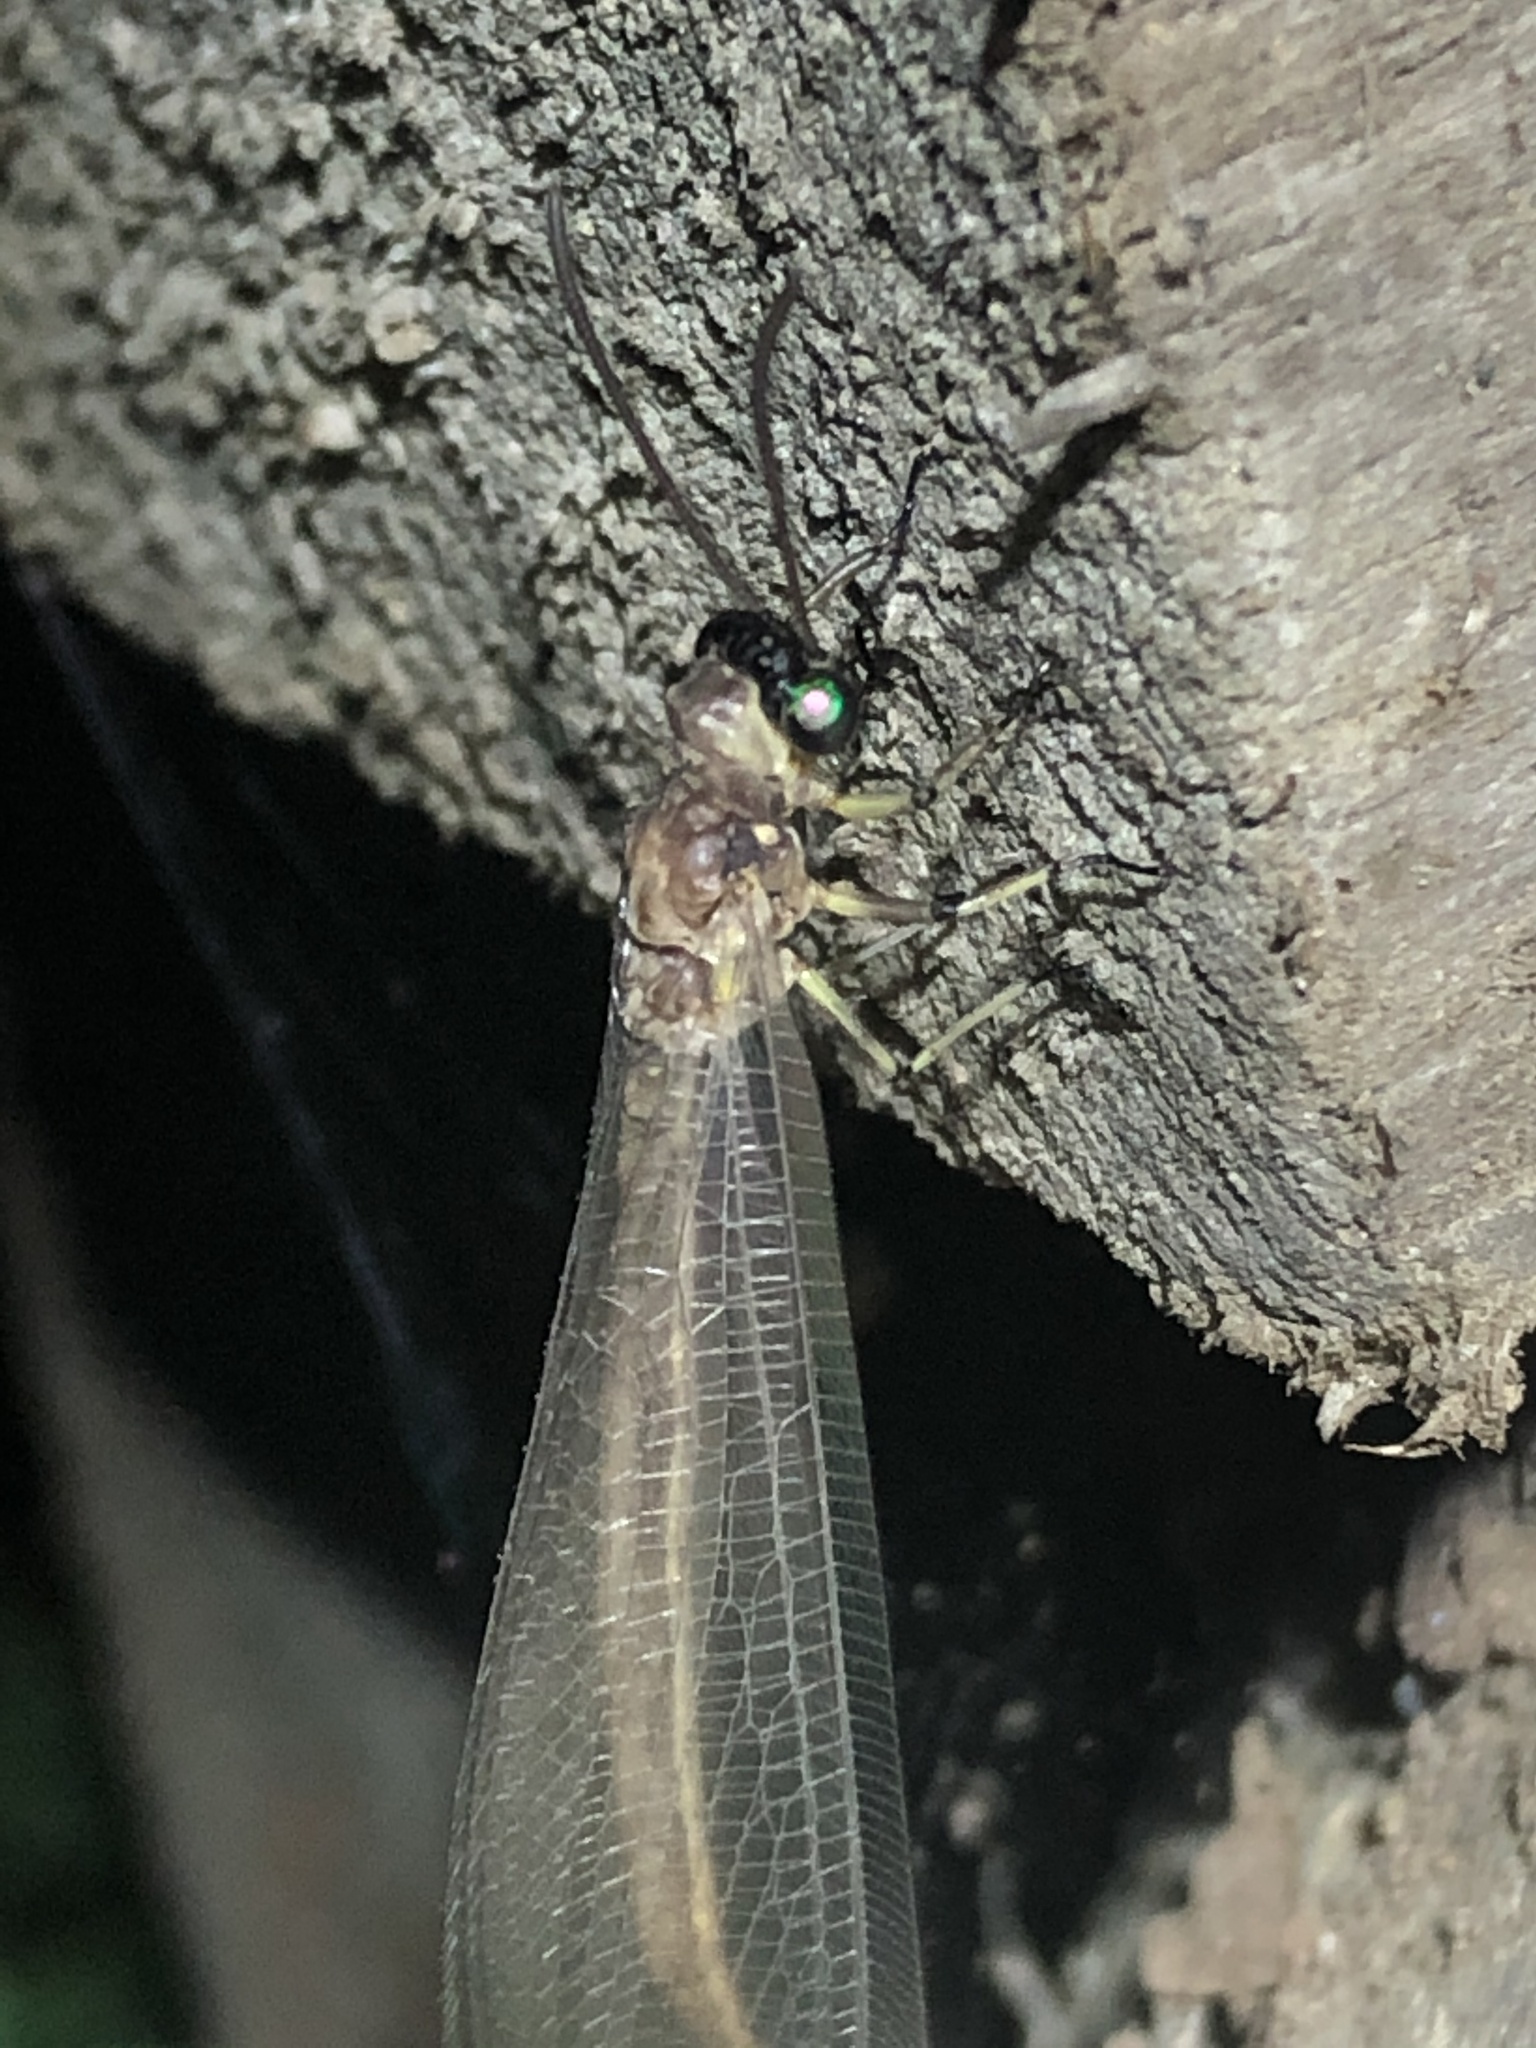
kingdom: Animalia
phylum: Arthropoda
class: Insecta
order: Neuroptera
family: Myrmeleontidae
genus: Myrmeleon
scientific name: Myrmeleon timidus
